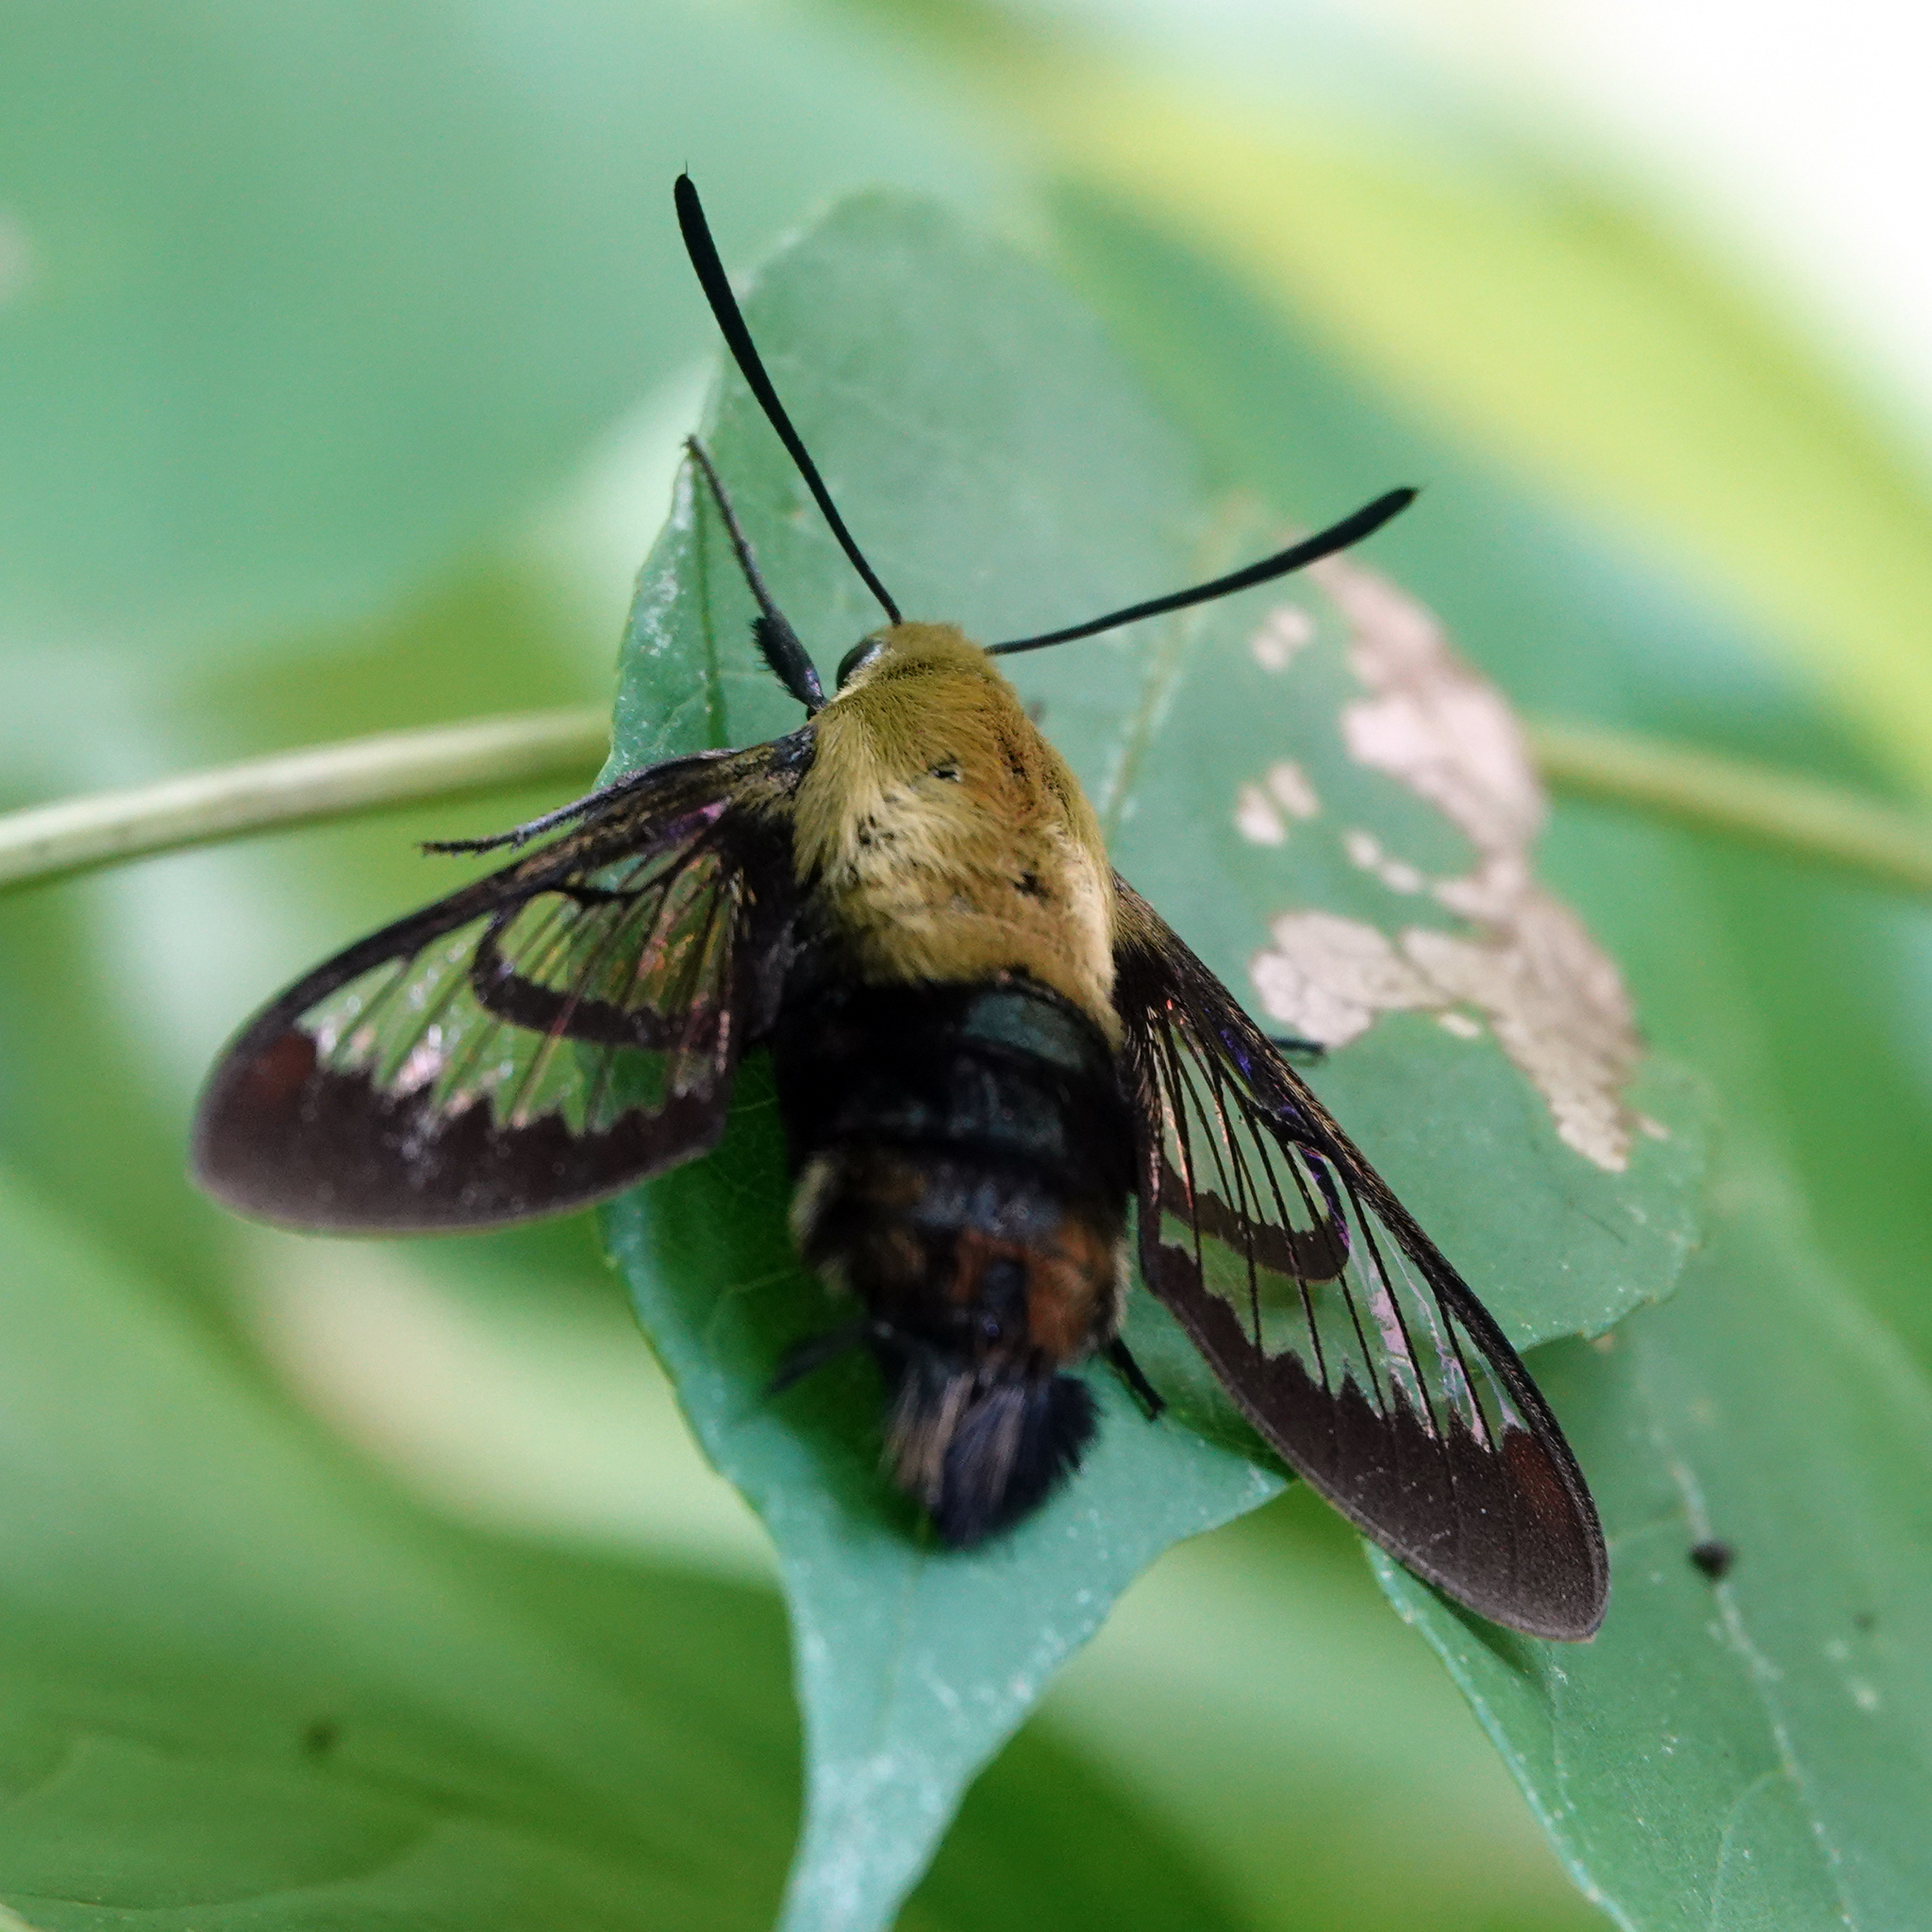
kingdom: Animalia
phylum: Arthropoda
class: Insecta
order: Lepidoptera
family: Sphingidae
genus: Hemaris
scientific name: Hemaris diffinis
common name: Bumblebee moth
